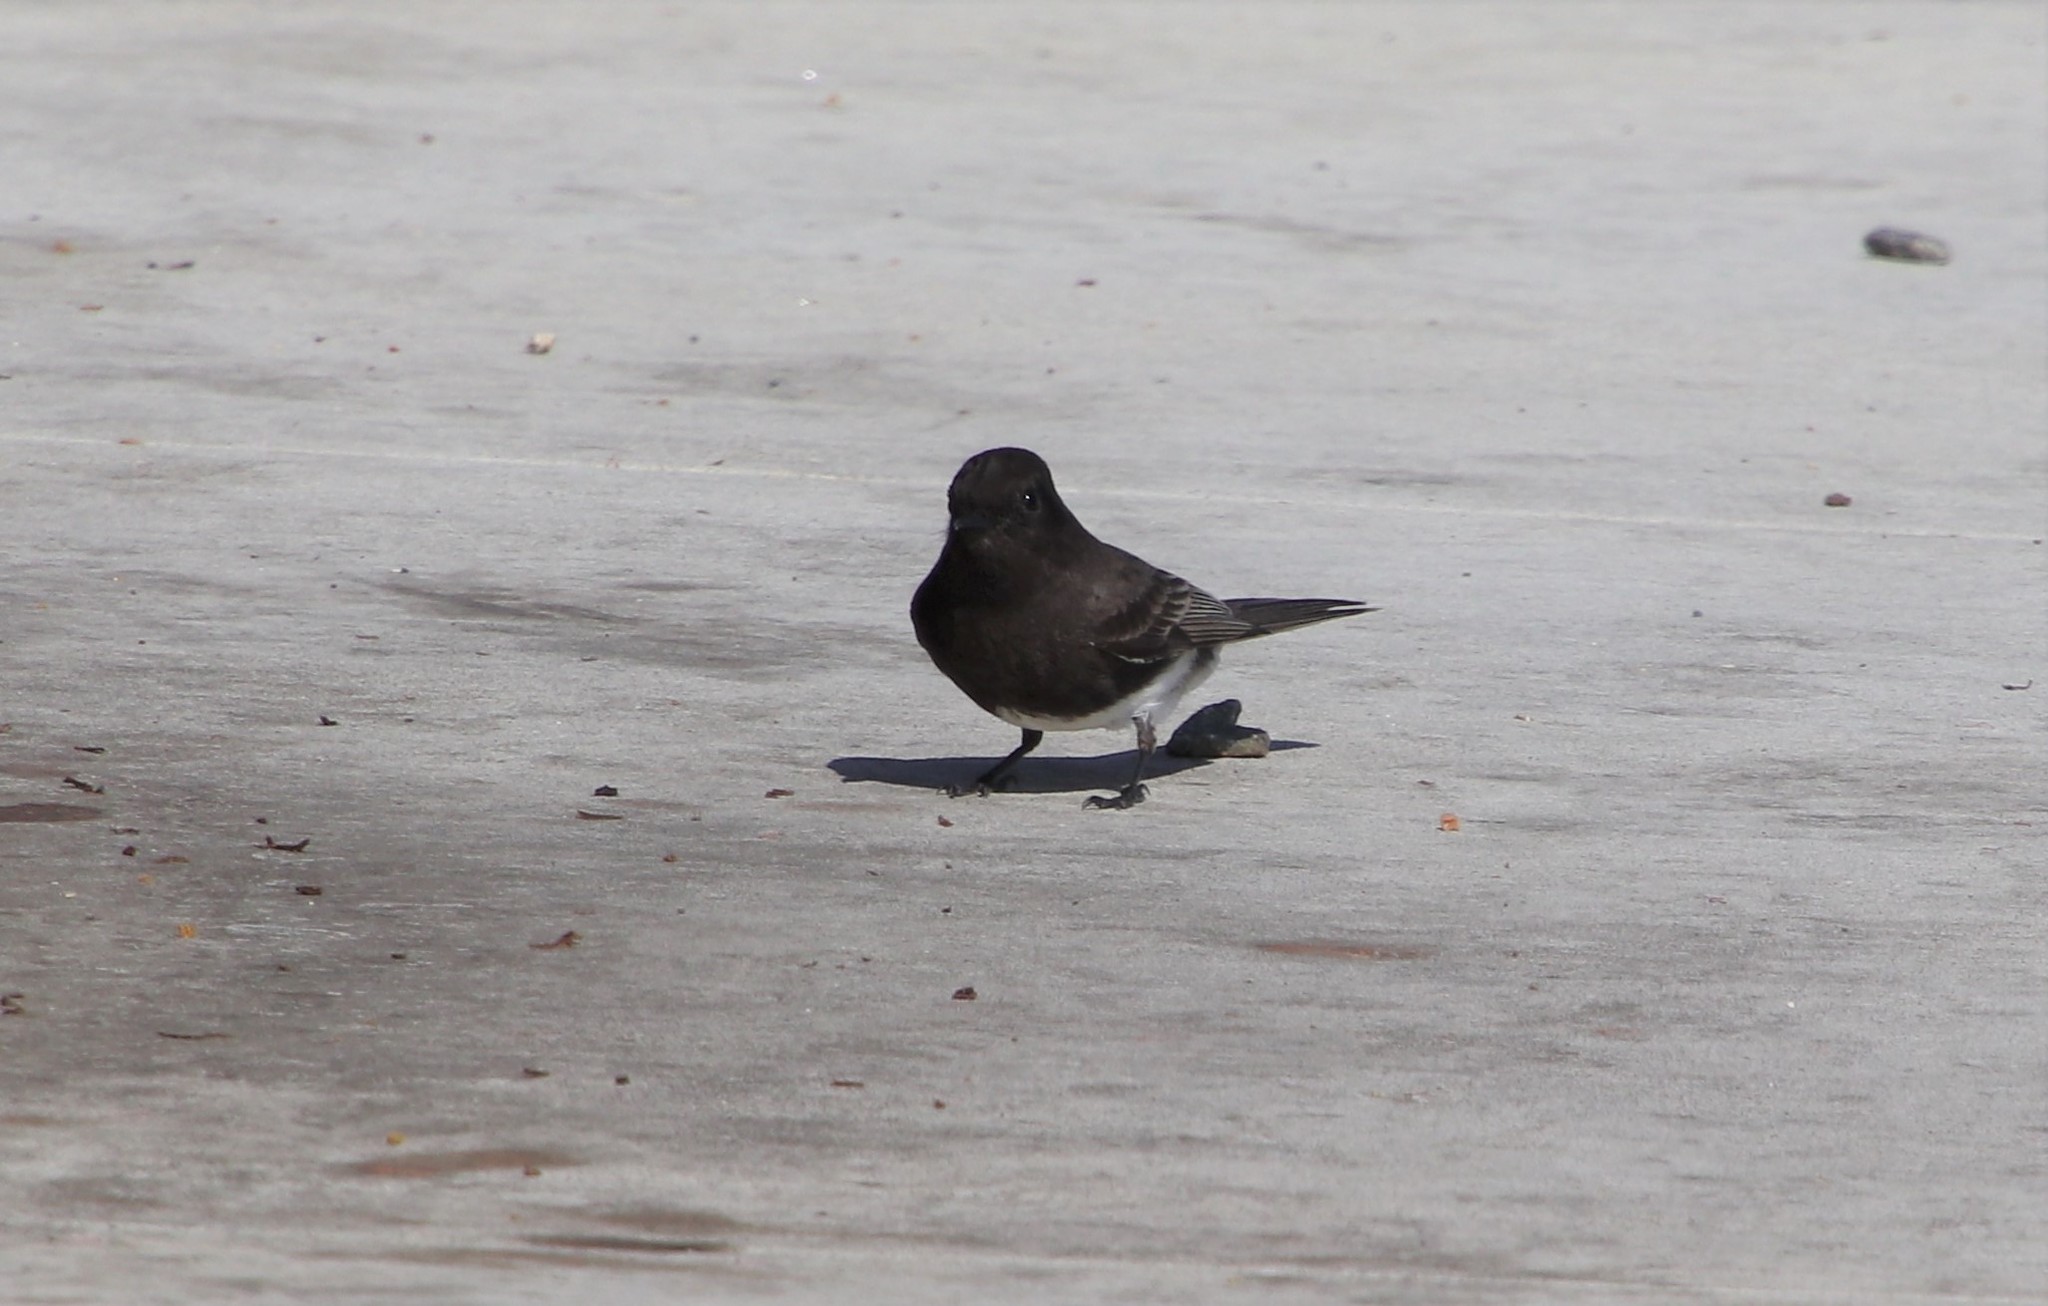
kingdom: Animalia
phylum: Chordata
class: Aves
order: Passeriformes
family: Tyrannidae
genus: Sayornis
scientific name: Sayornis nigricans
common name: Black phoebe
